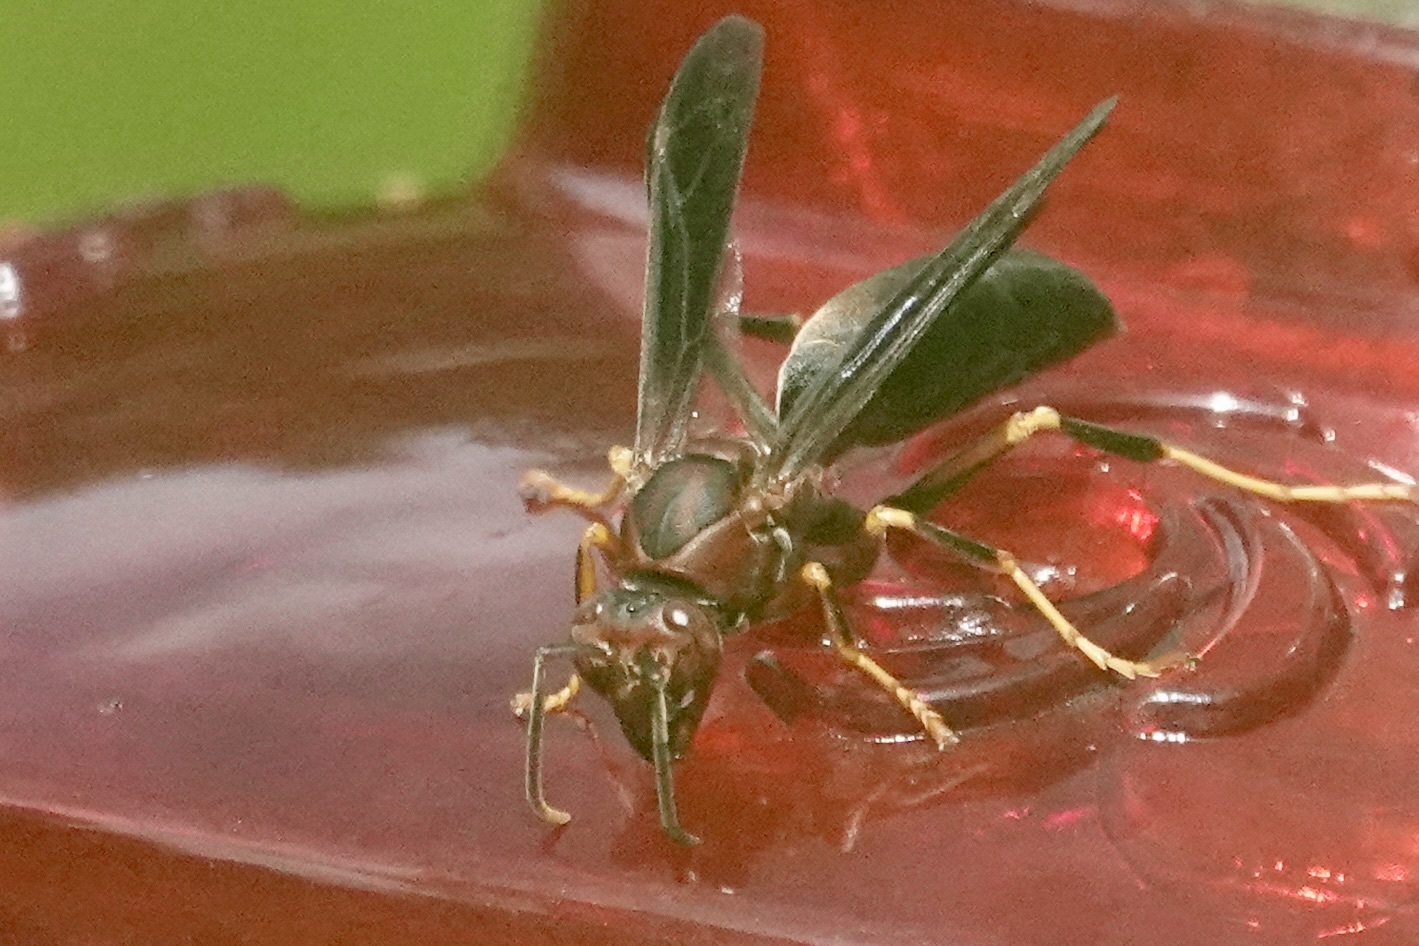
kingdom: Animalia
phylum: Arthropoda
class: Insecta
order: Hymenoptera
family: Eumenidae
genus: Polistes
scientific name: Polistes metricus
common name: Metric paper wasp
